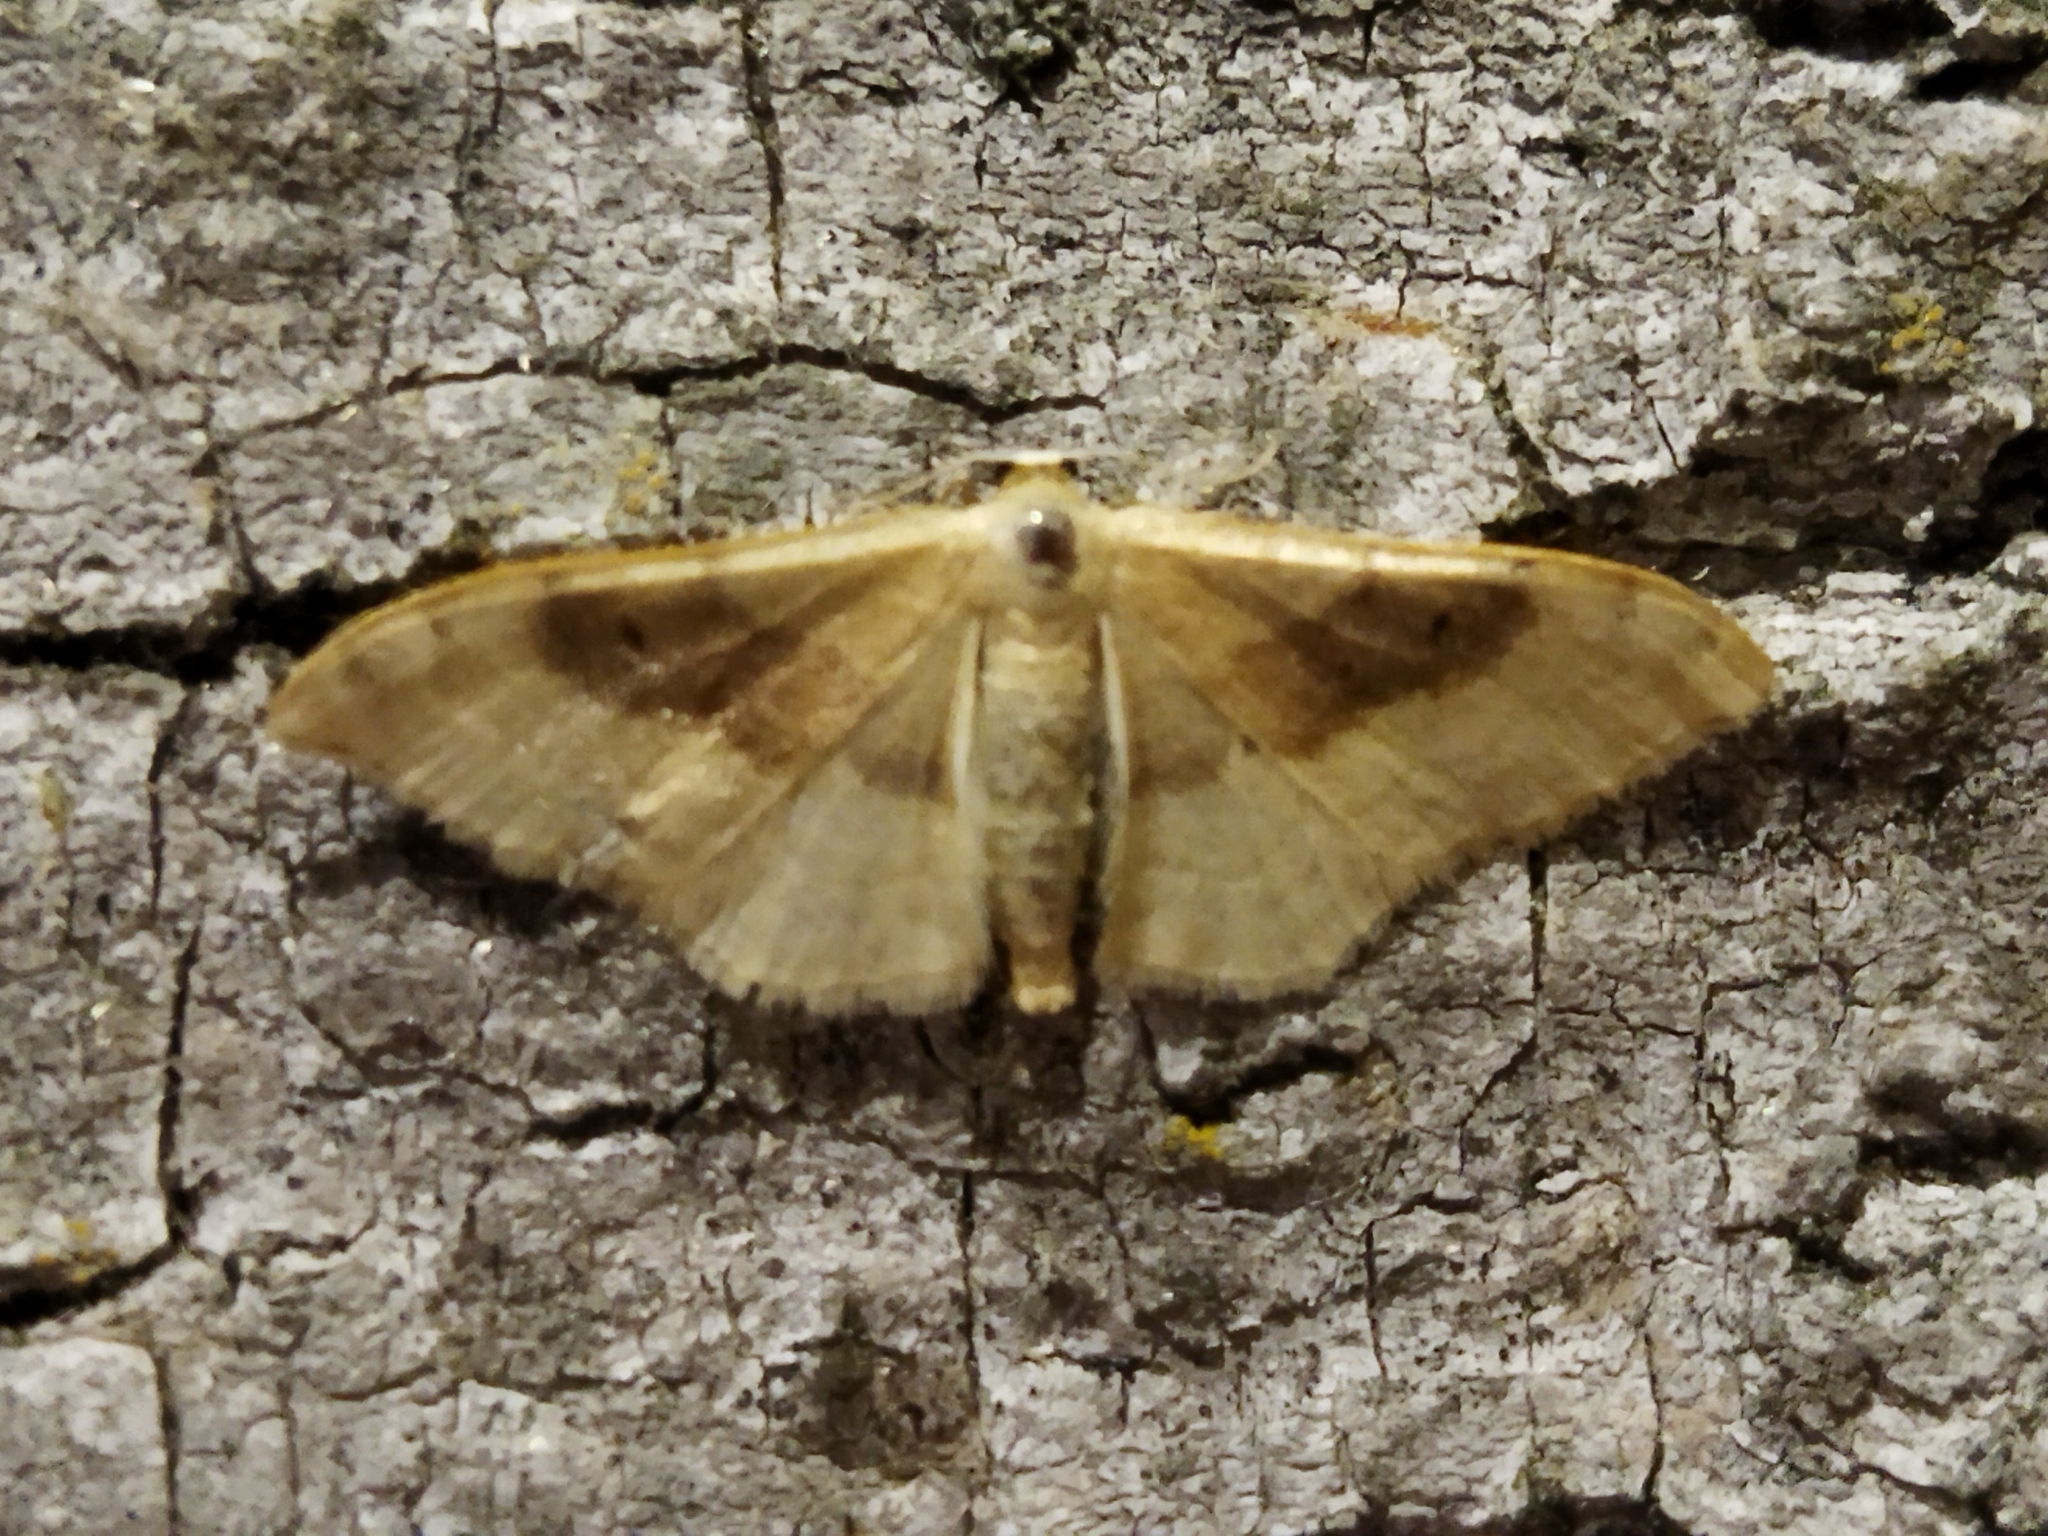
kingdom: Animalia
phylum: Arthropoda
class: Insecta
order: Lepidoptera
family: Geometridae
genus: Idaea
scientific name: Idaea degeneraria
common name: Portland ribbon wave
